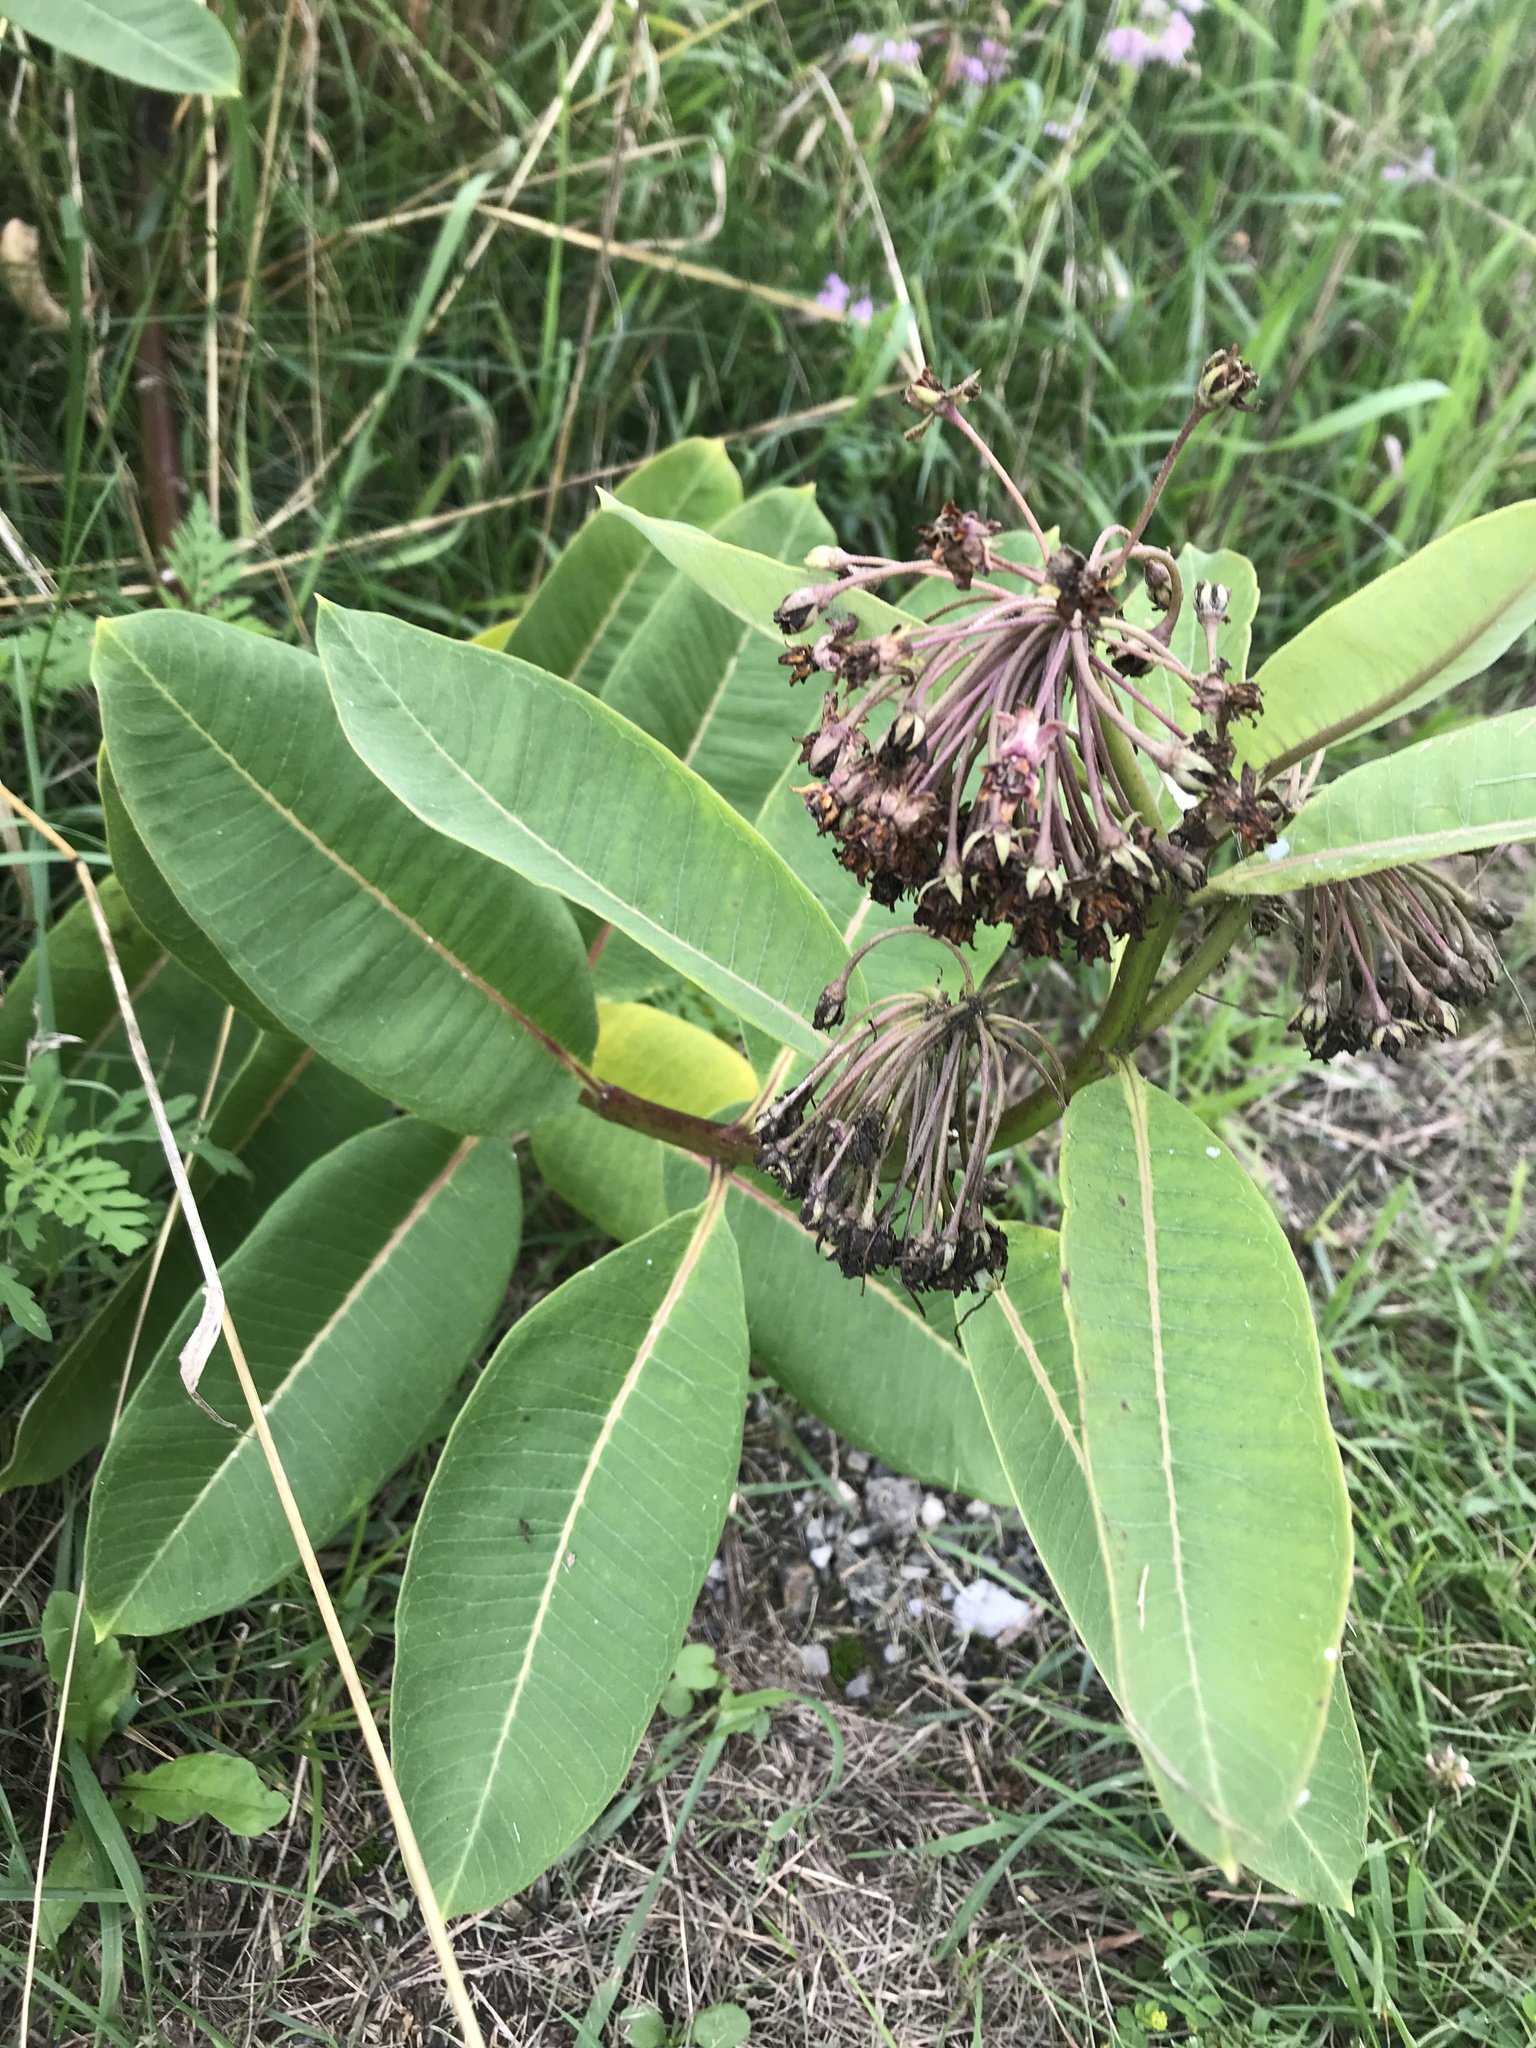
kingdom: Plantae
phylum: Tracheophyta
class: Magnoliopsida
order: Gentianales
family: Apocynaceae
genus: Asclepias
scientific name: Asclepias syriaca
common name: Common milkweed
